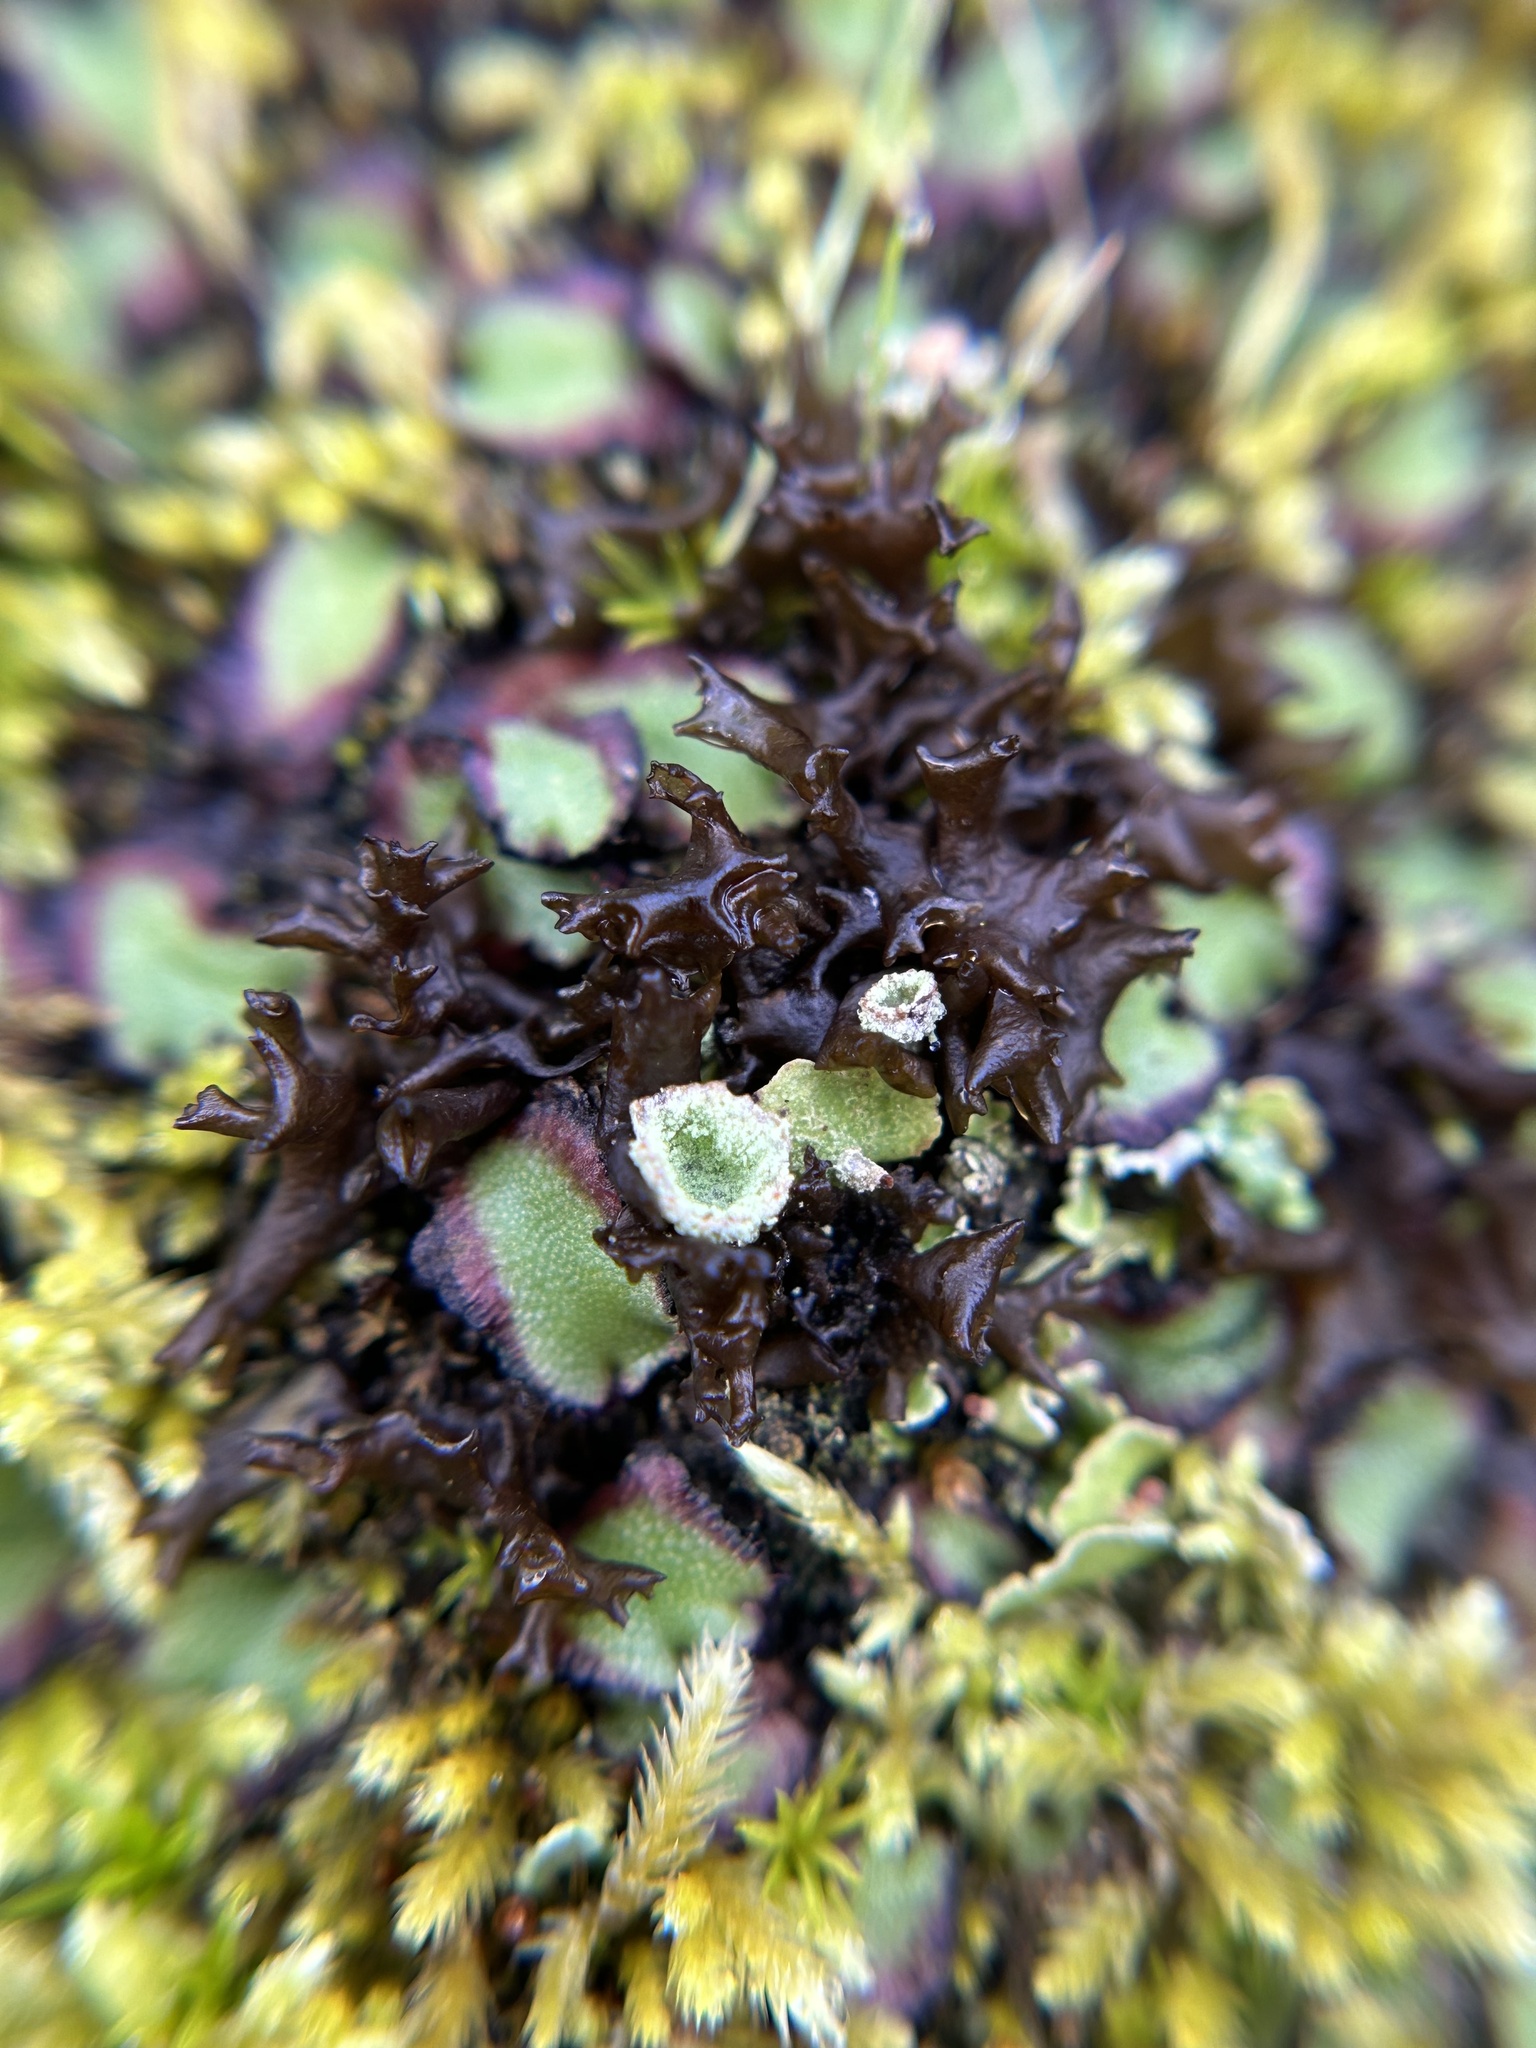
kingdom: Fungi
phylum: Ascomycota
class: Lecanoromycetes
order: Peltigerales
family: Collemataceae
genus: Scytinium
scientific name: Scytinium palmatum
